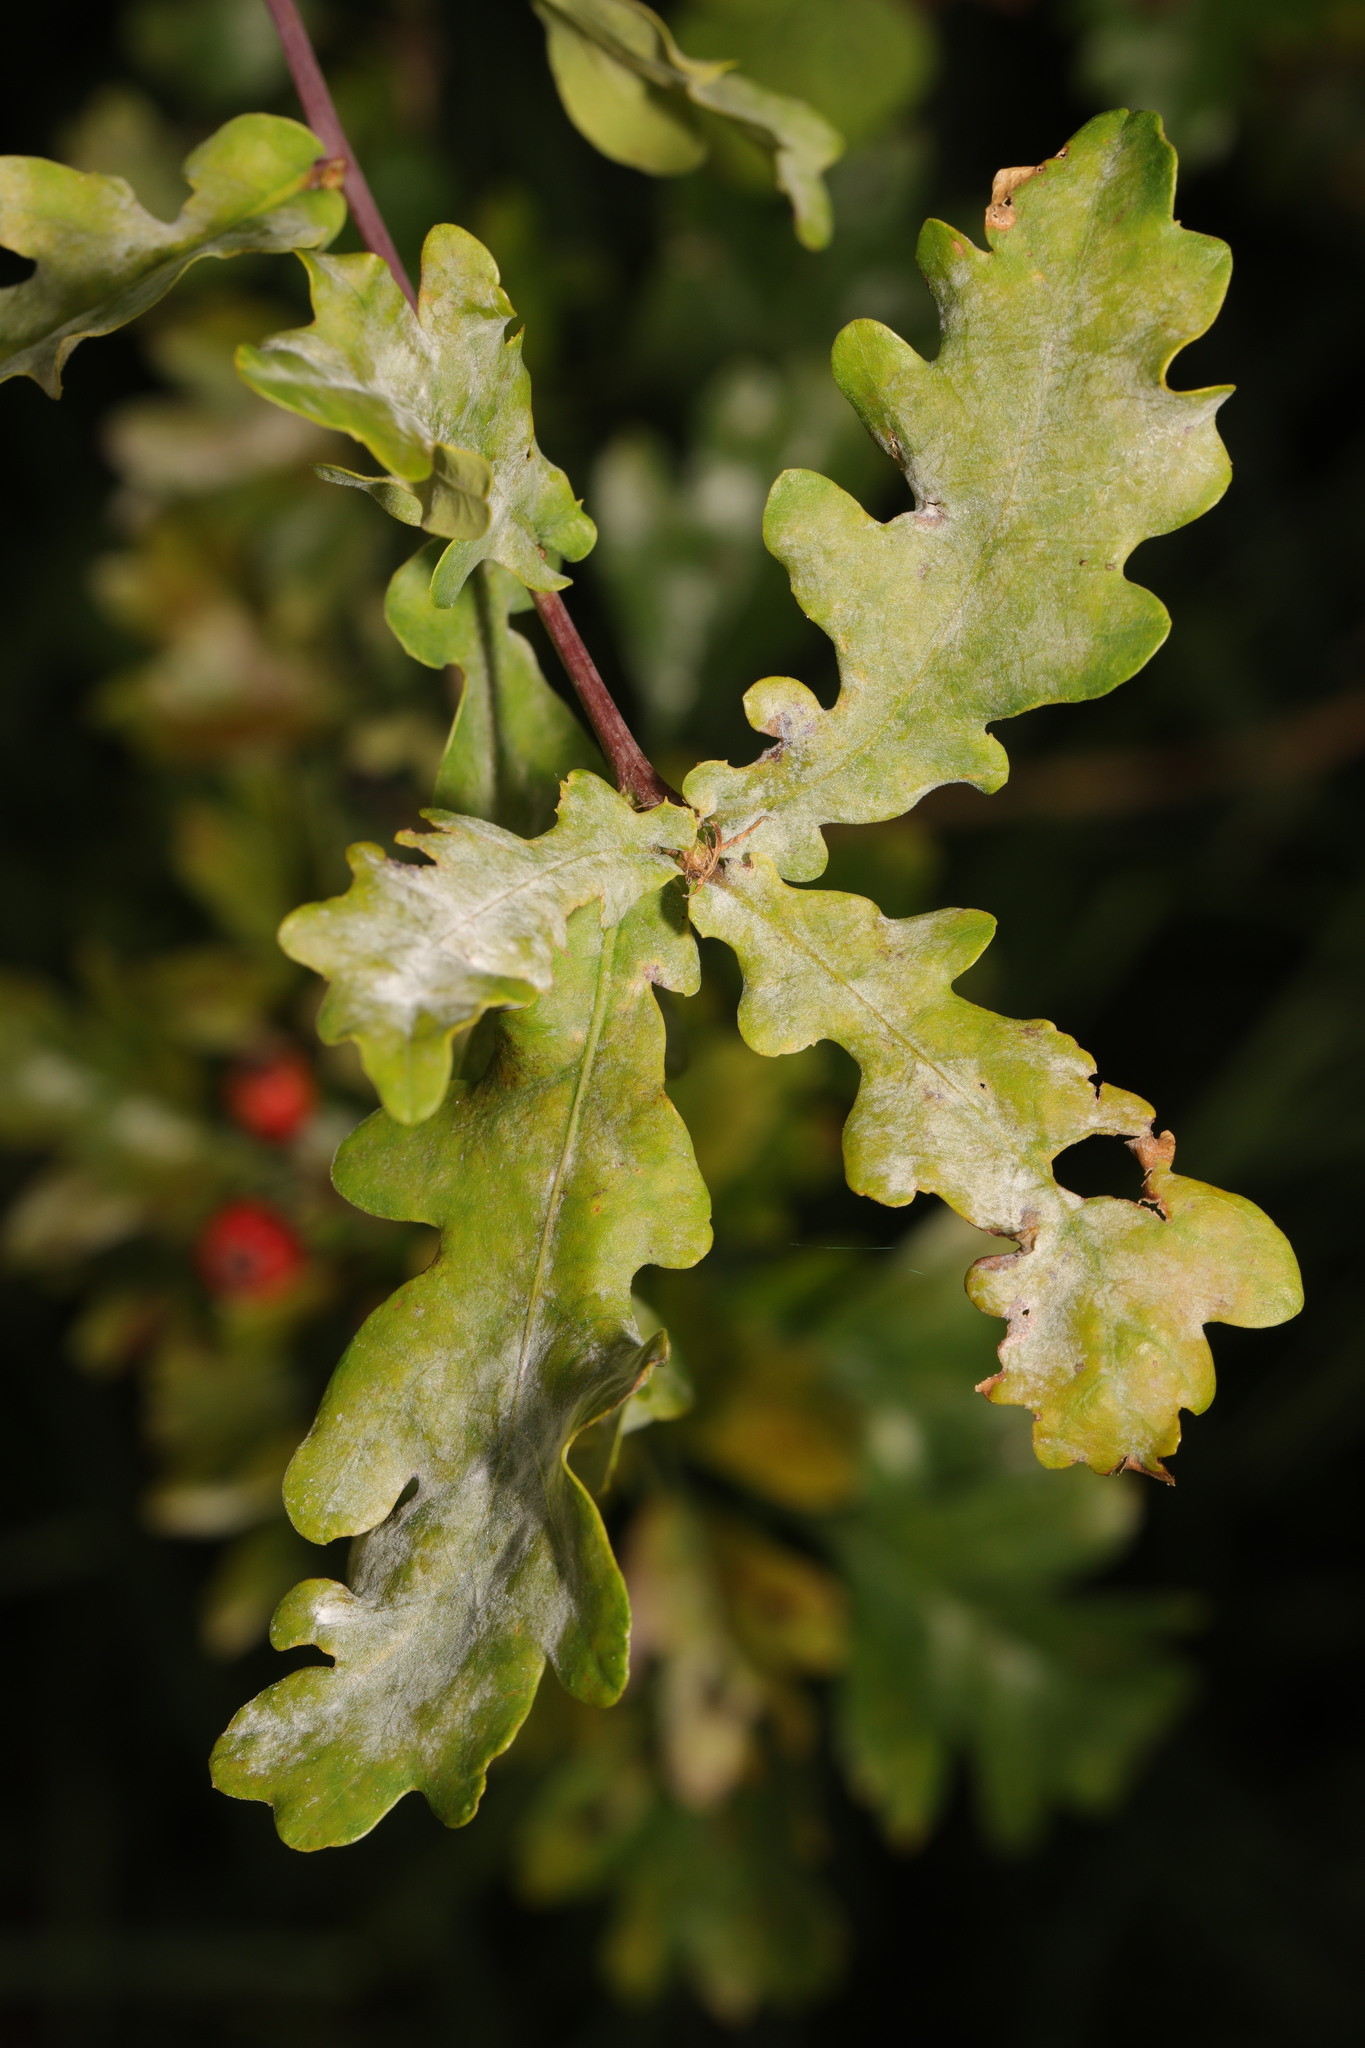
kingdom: Fungi
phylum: Ascomycota
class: Leotiomycetes
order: Helotiales
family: Erysiphaceae
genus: Erysiphe
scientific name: Erysiphe alphitoides
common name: Oak mildew
